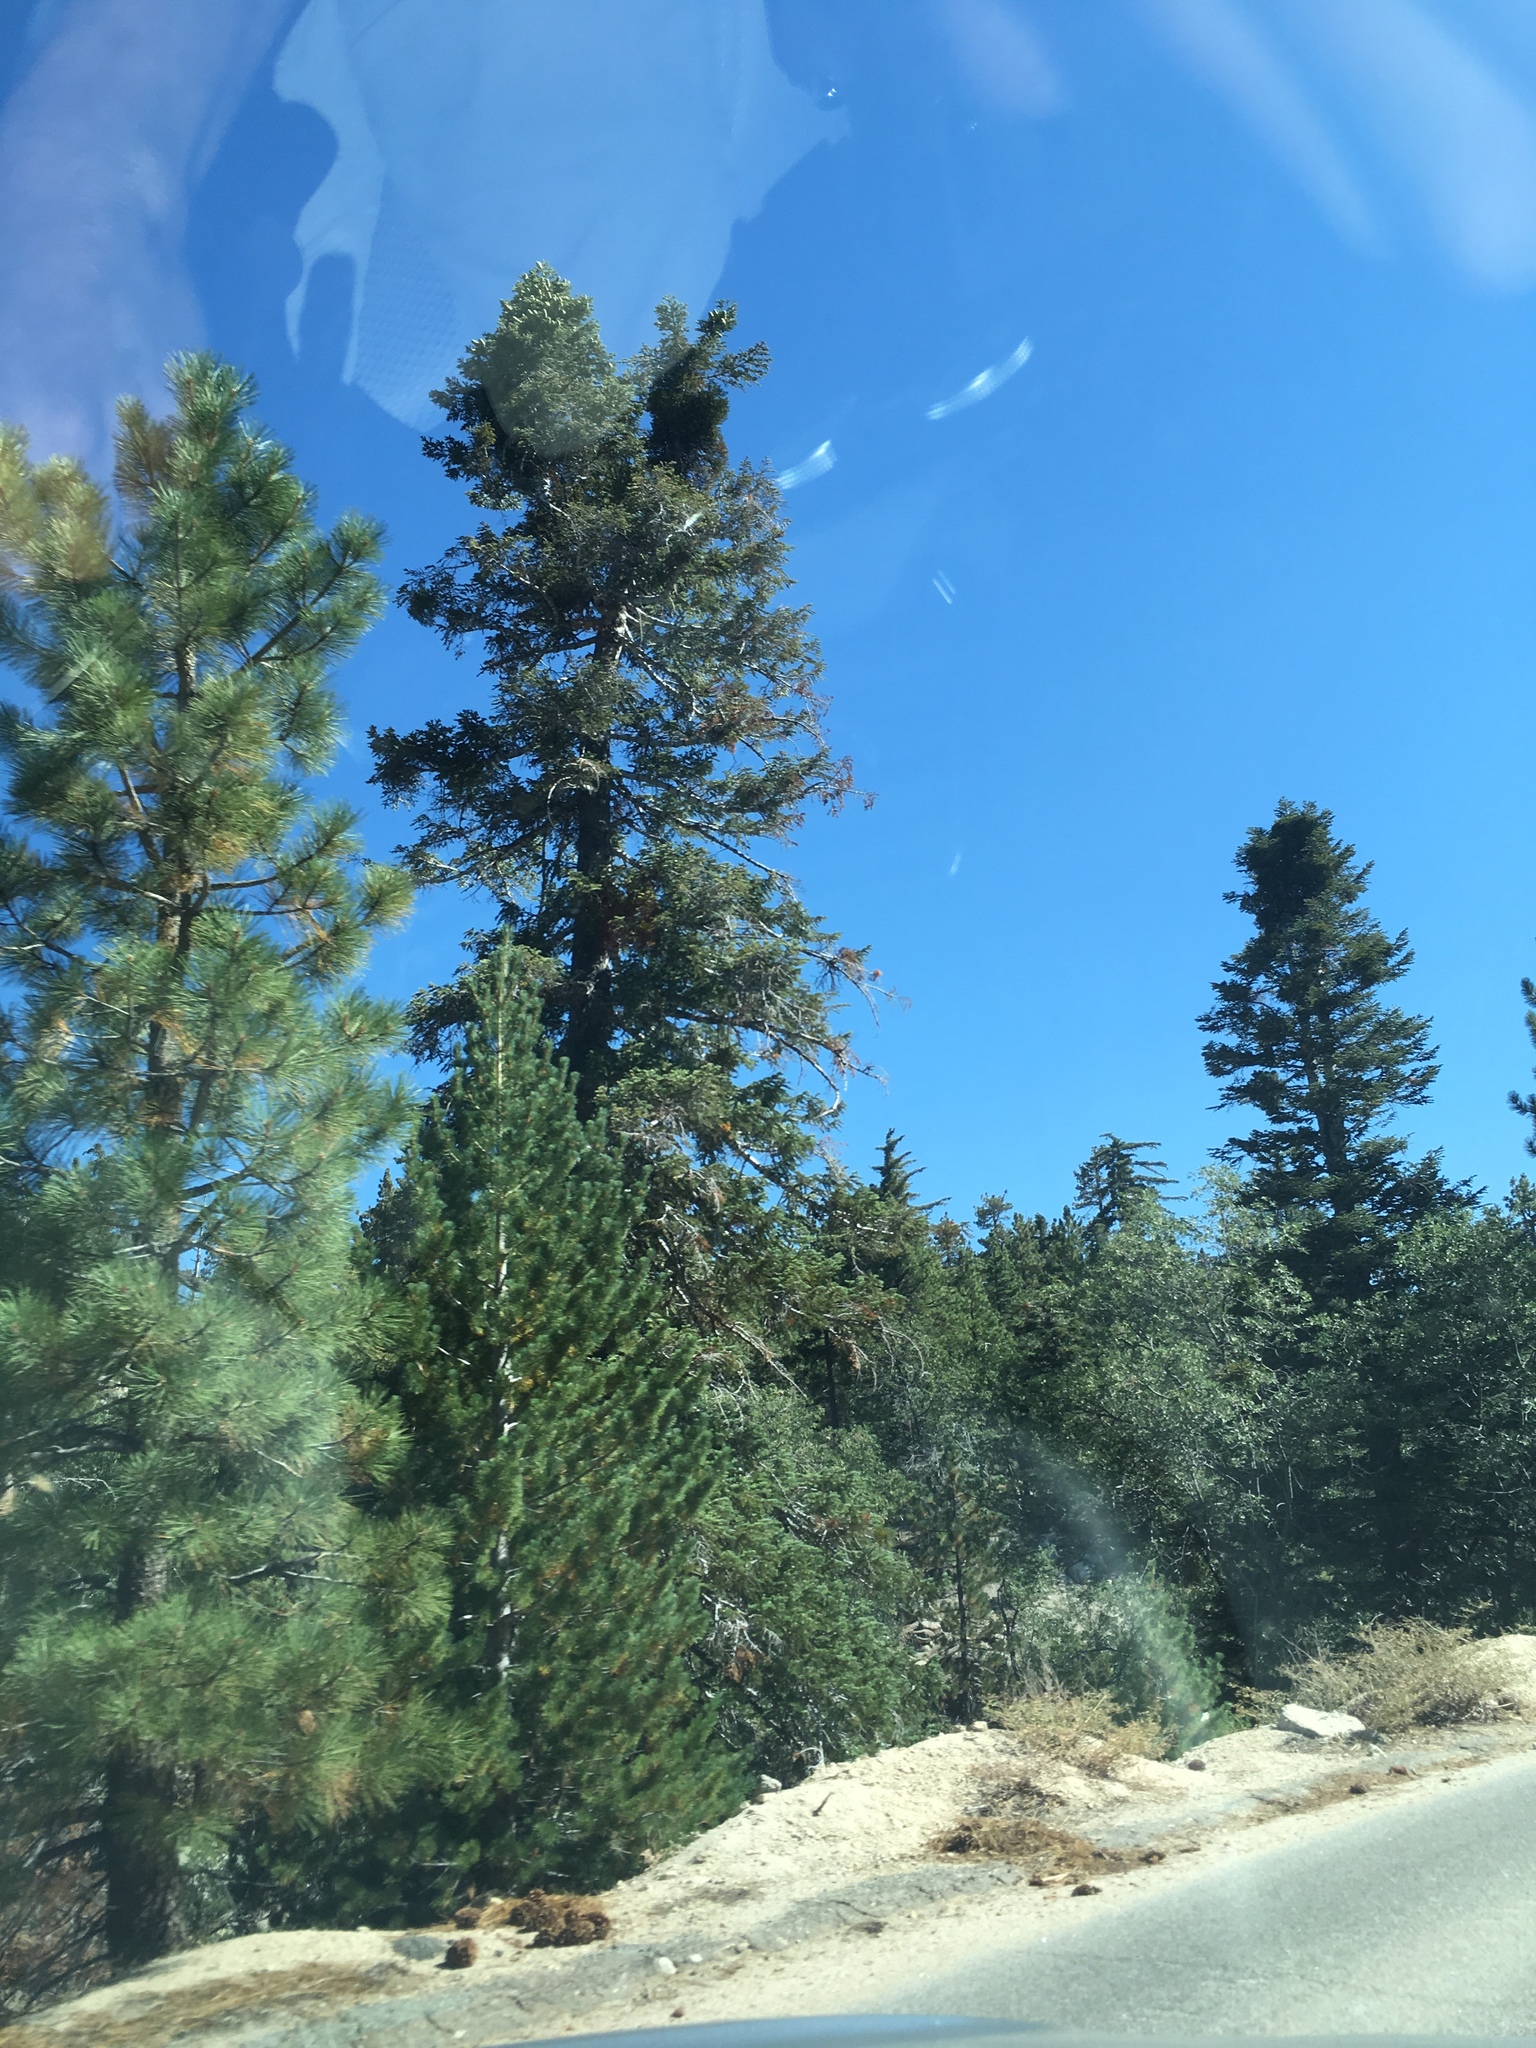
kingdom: Plantae
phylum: Tracheophyta
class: Pinopsida
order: Pinales
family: Pinaceae
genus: Abies
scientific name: Abies concolor
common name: Colorado fir
